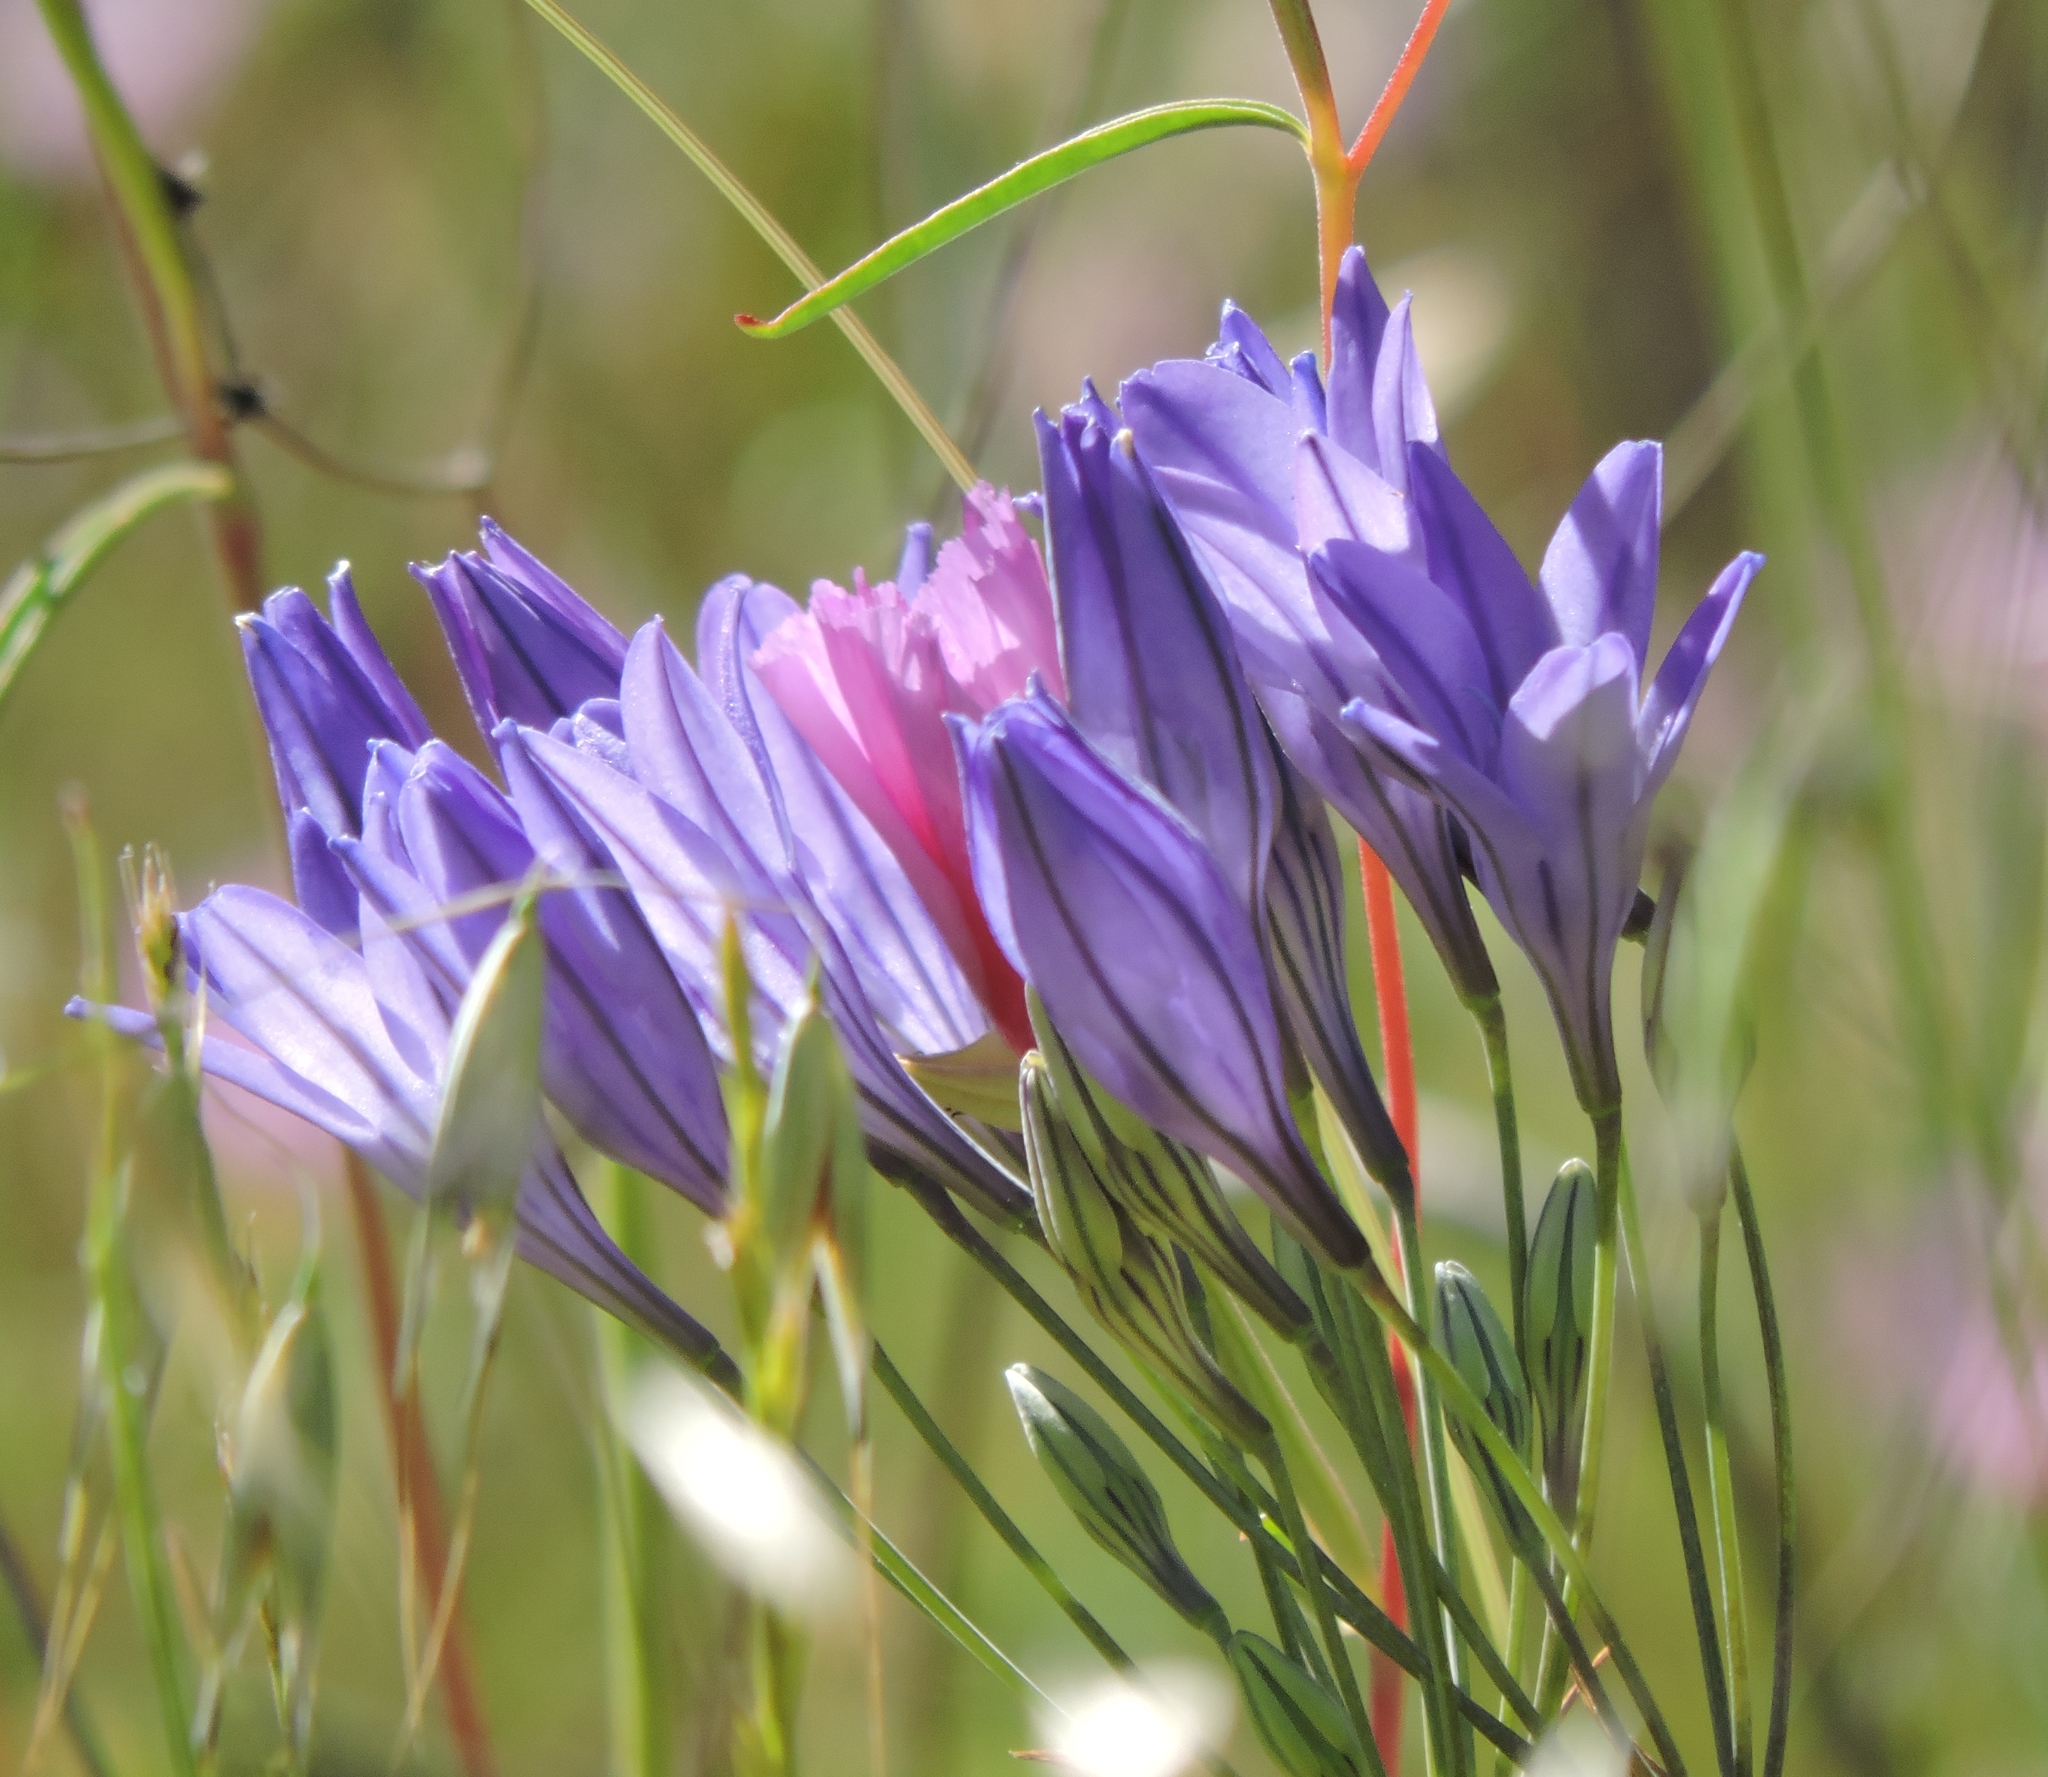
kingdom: Plantae
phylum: Tracheophyta
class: Liliopsida
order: Asparagales
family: Asparagaceae
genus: Triteleia
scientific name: Triteleia laxa
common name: Triplet-lily
